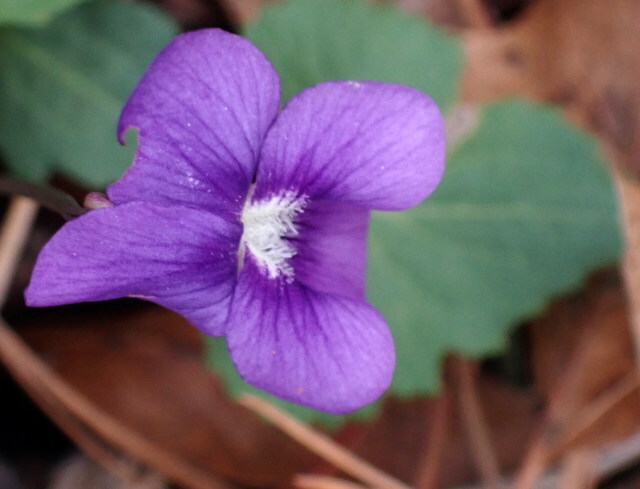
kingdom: Plantae
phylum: Tracheophyta
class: Magnoliopsida
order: Malpighiales
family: Violaceae
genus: Viola
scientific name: Viola sororia
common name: Dooryard violet
